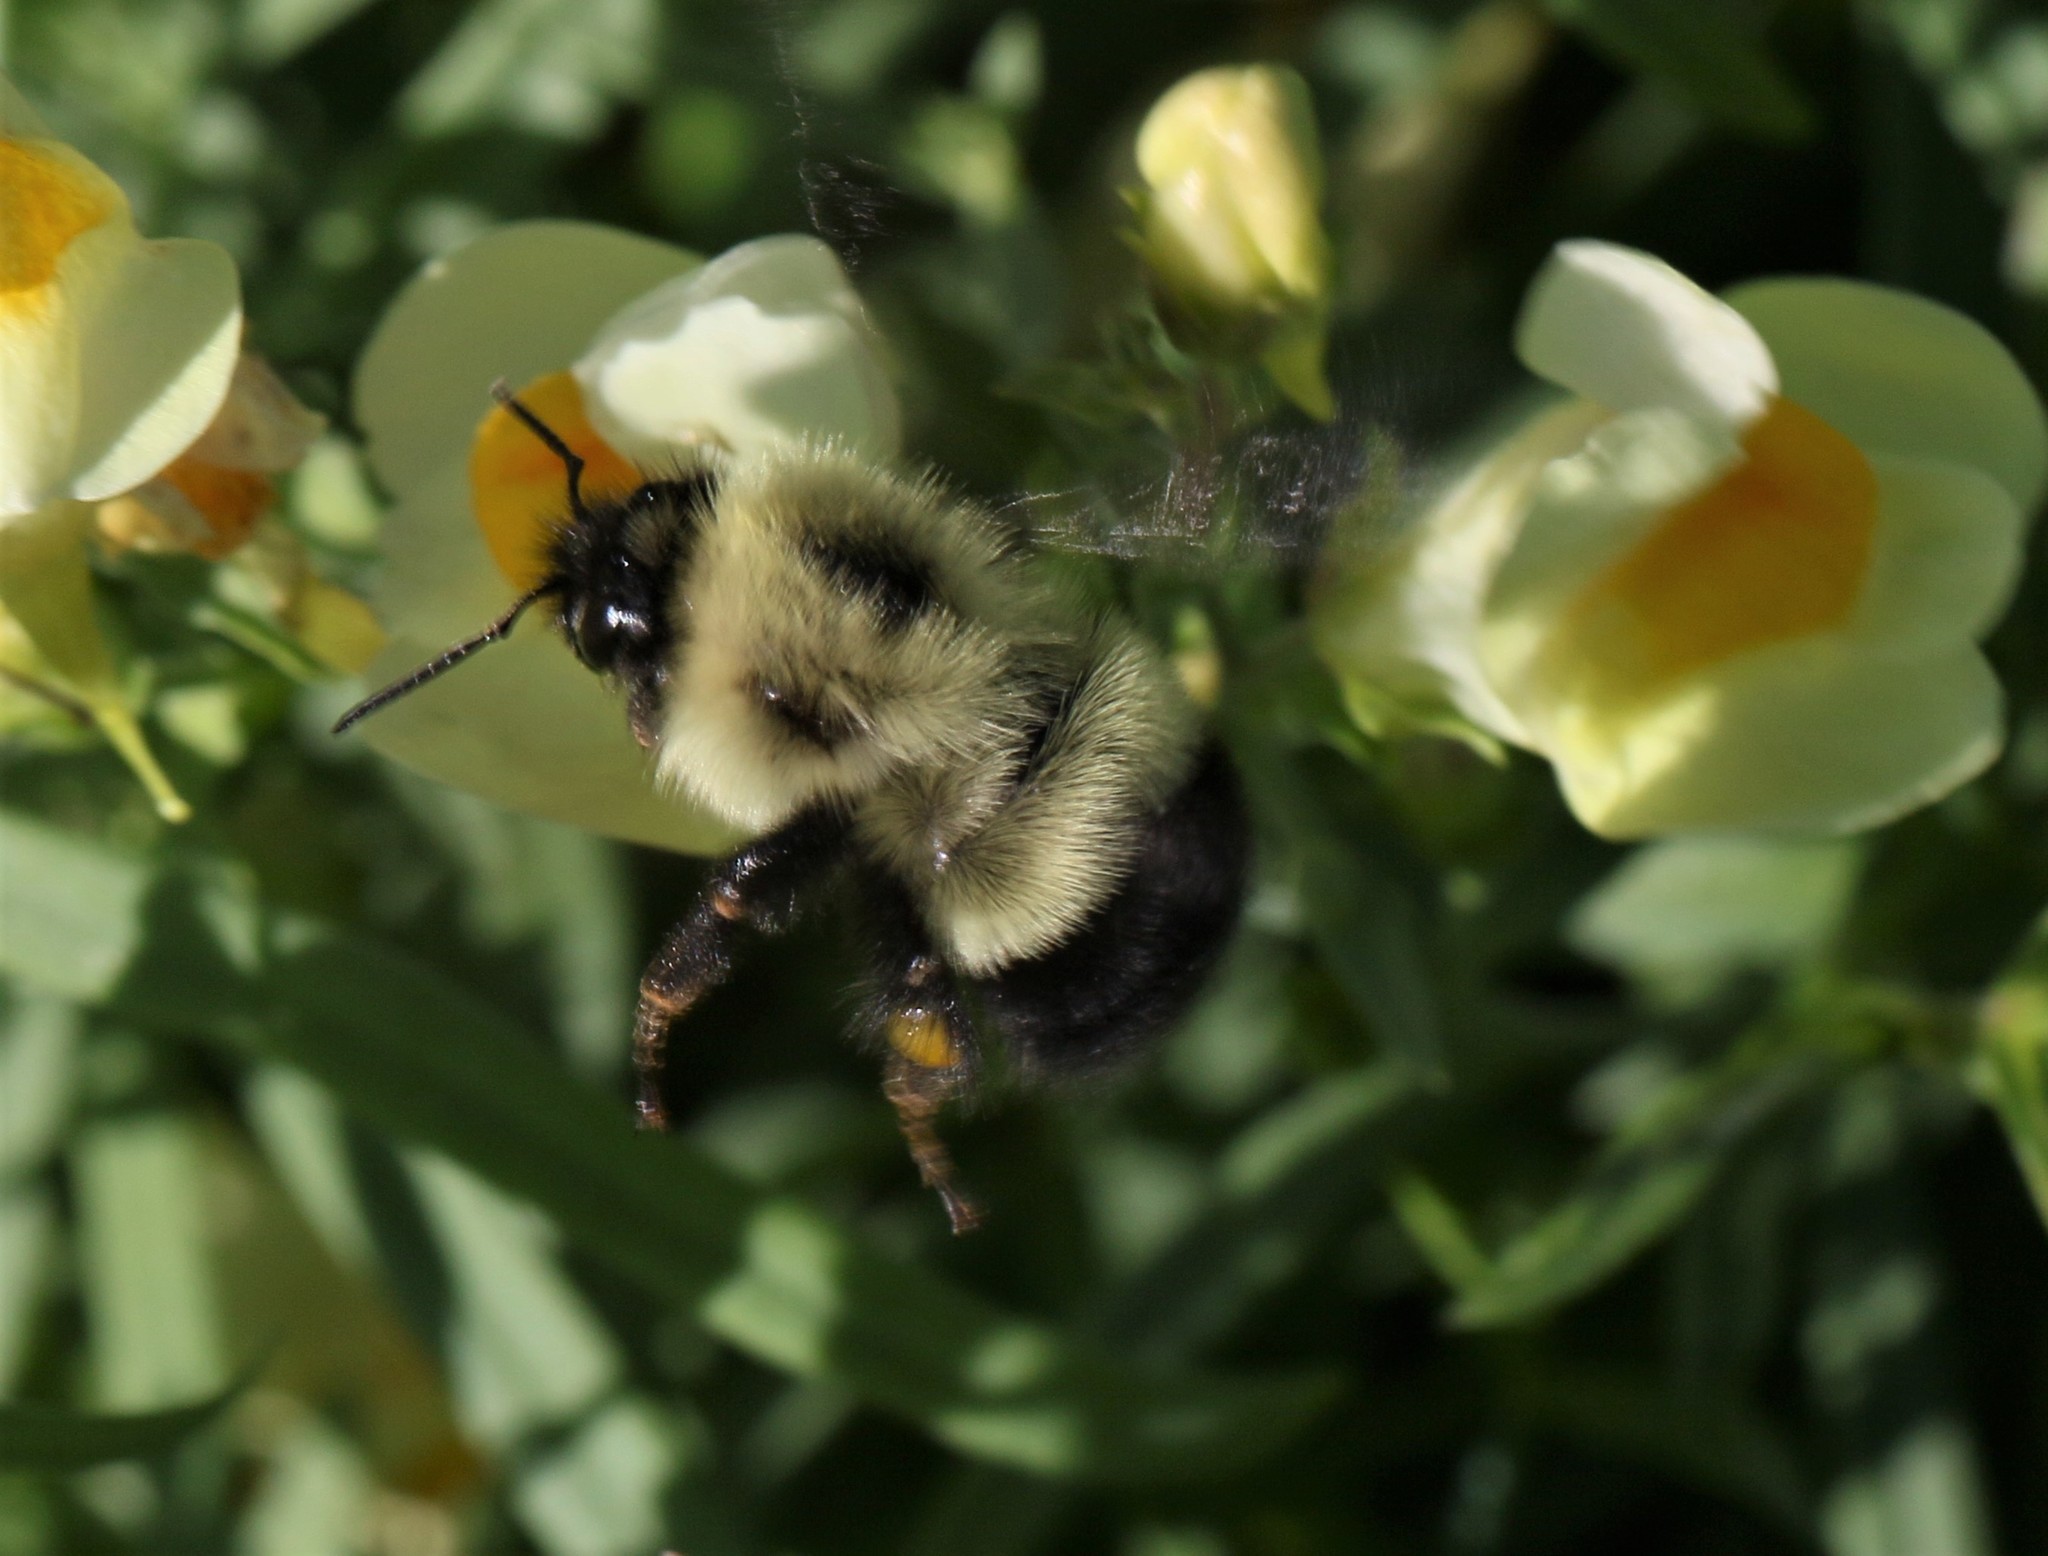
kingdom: Animalia
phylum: Arthropoda
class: Insecta
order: Hymenoptera
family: Apidae
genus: Pyrobombus
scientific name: Pyrobombus
